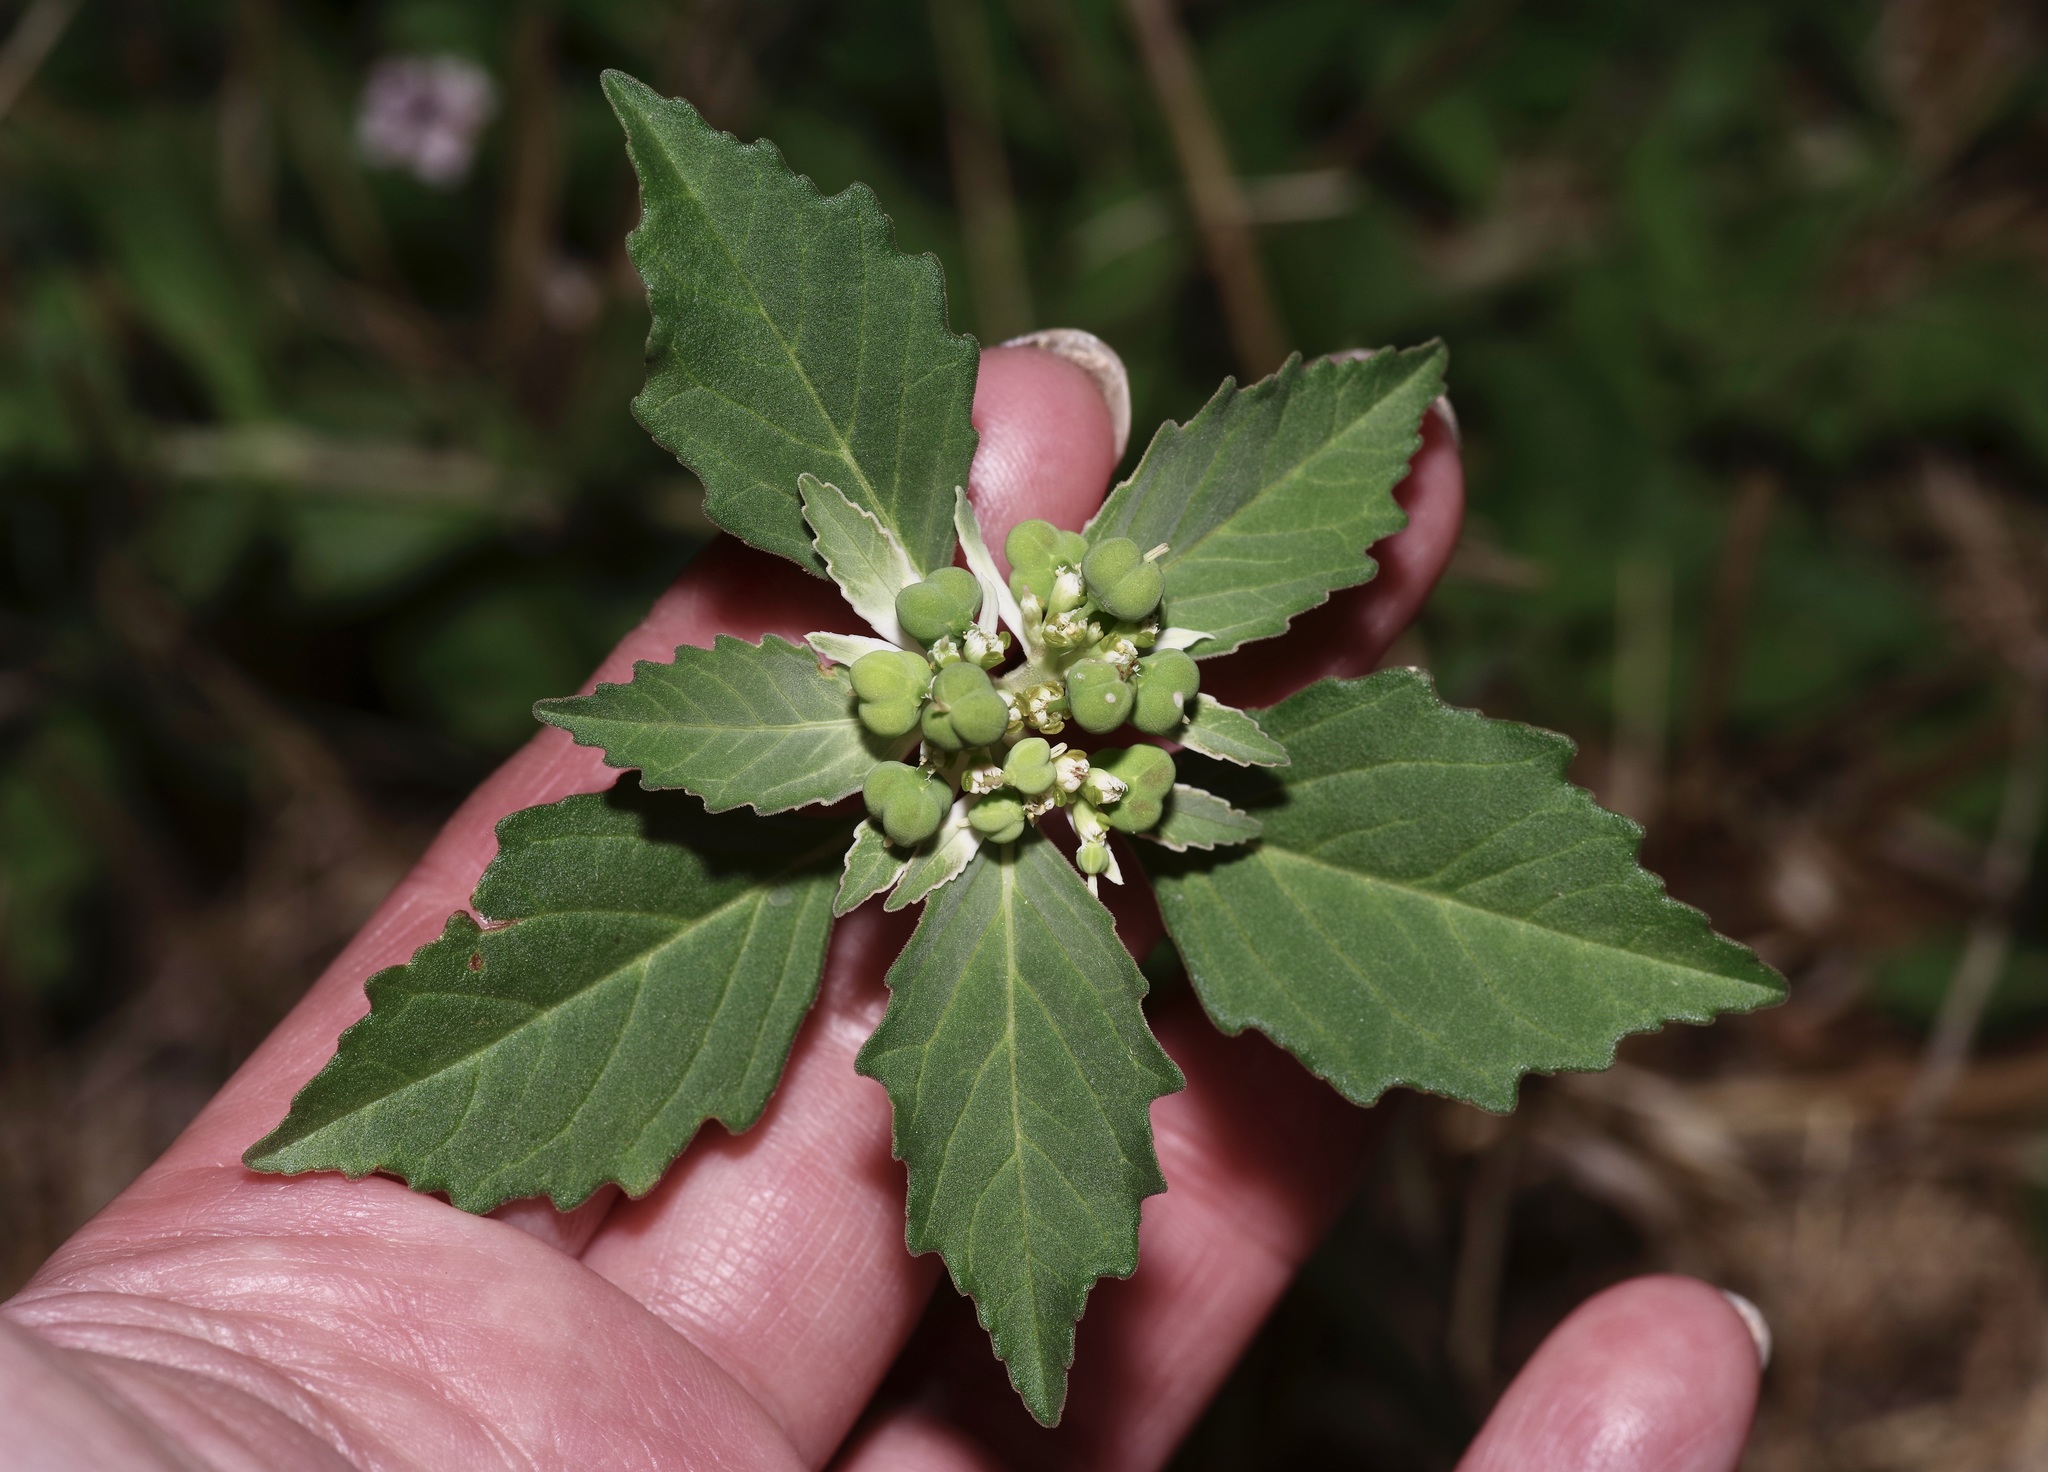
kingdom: Plantae
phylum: Tracheophyta
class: Magnoliopsida
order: Malpighiales
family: Euphorbiaceae
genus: Euphorbia
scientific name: Euphorbia dentata
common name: Dentate spurge
